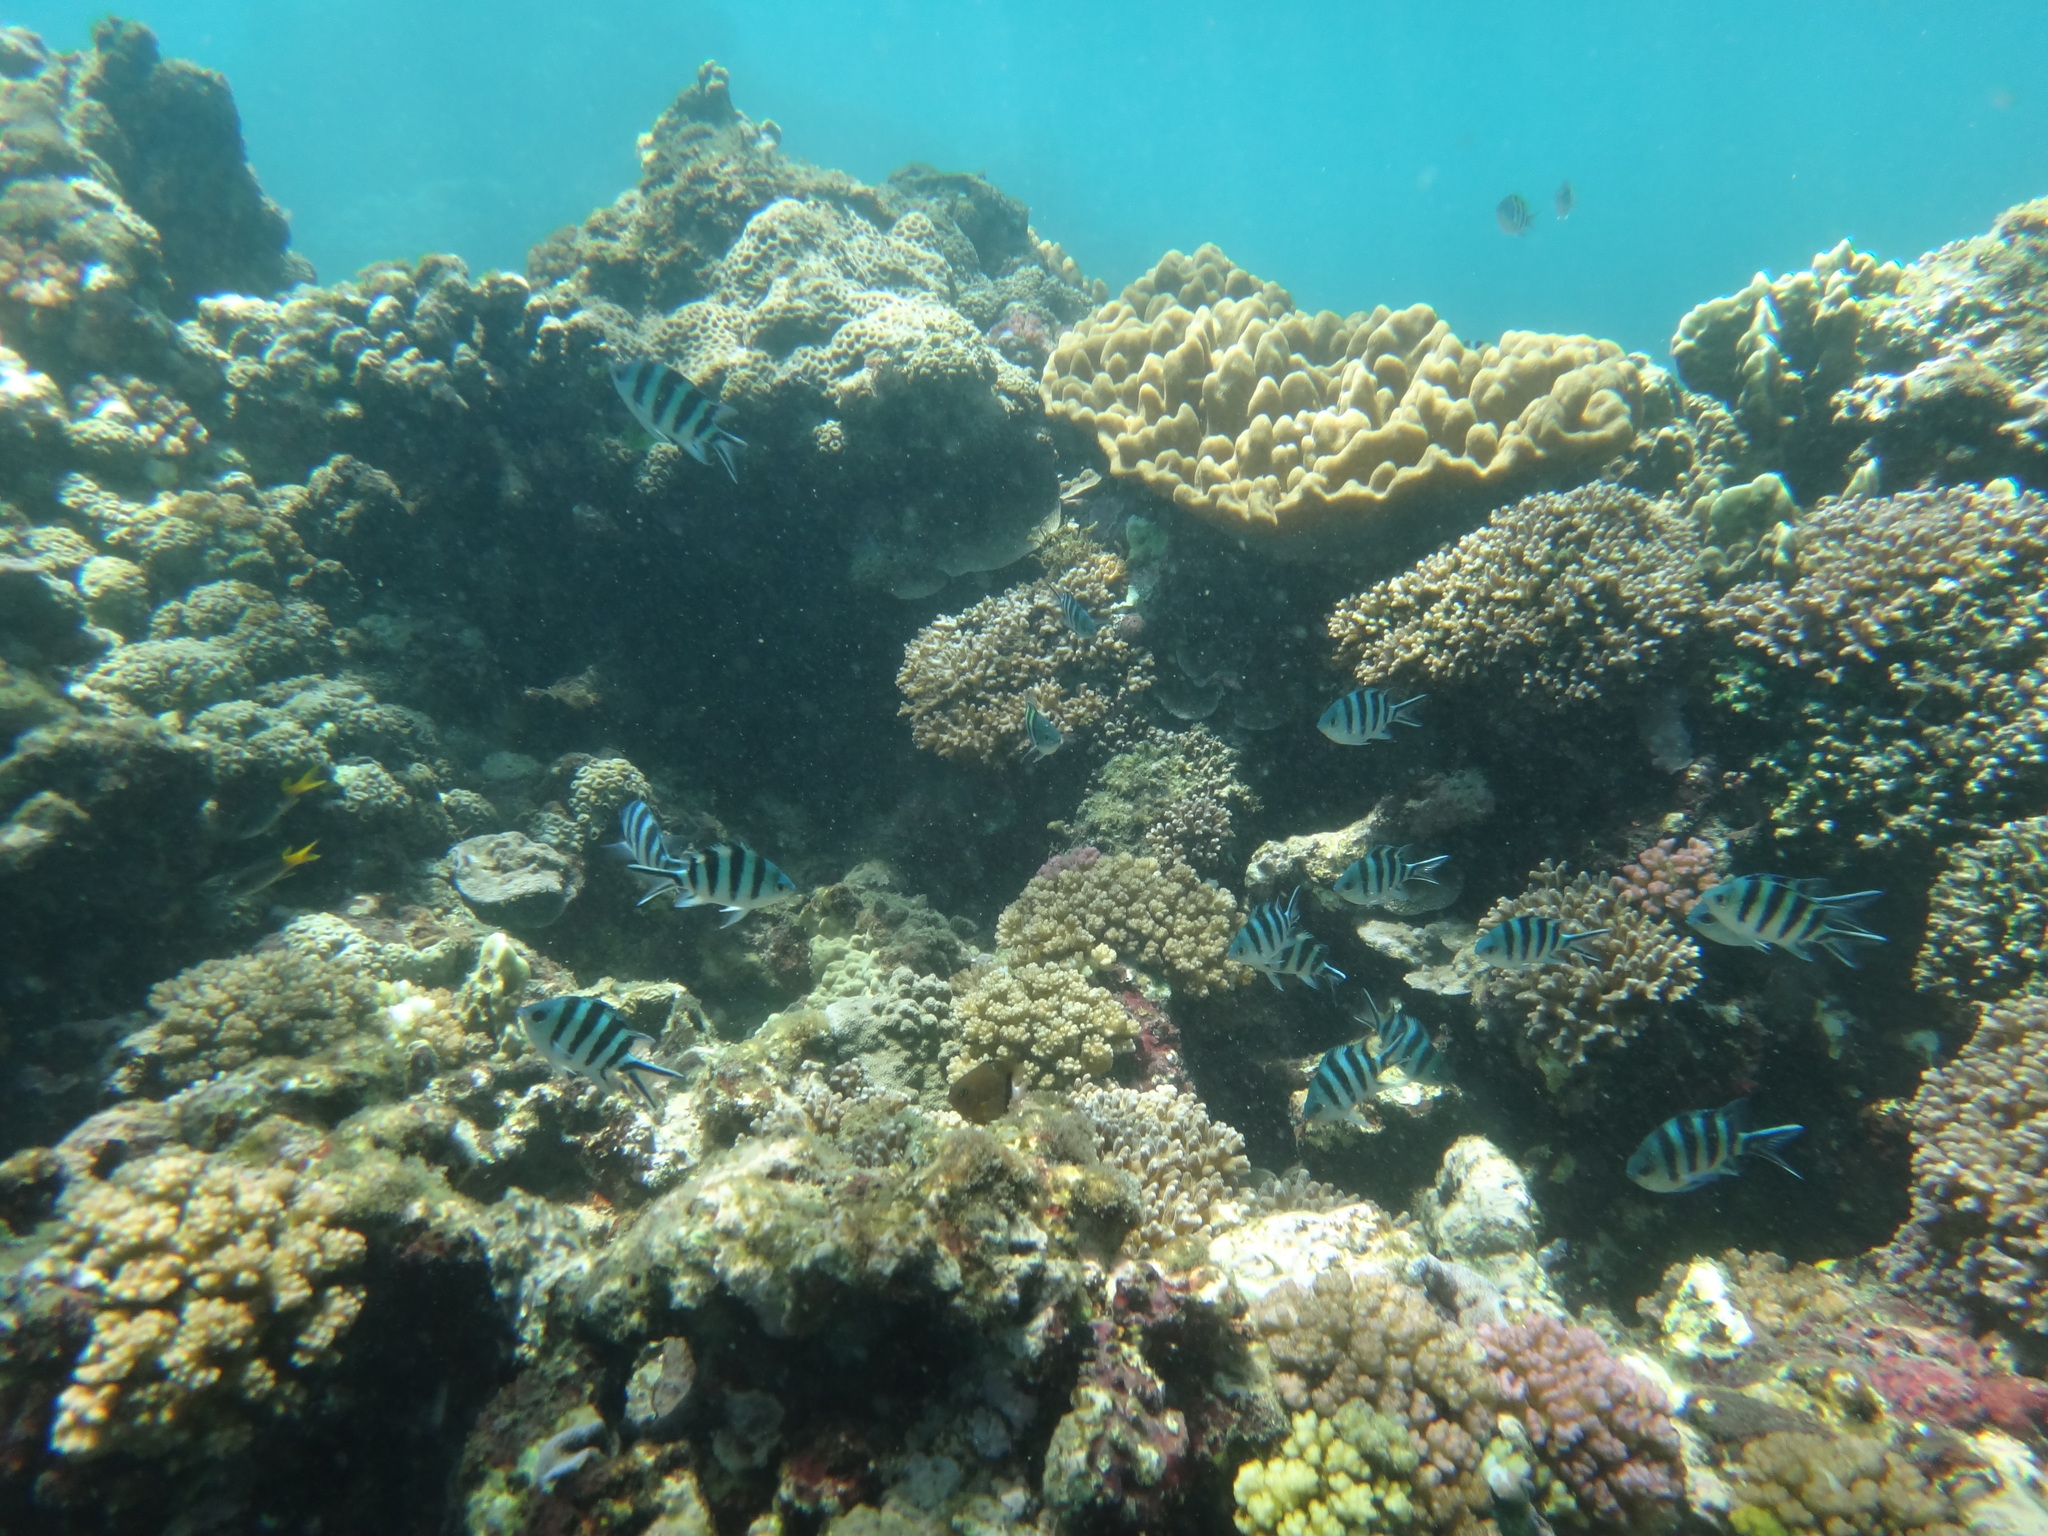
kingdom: Animalia
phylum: Chordata
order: Perciformes
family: Pomacentridae
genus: Abudefduf
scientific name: Abudefduf sexfasciatus
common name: Scissortail sergeant
